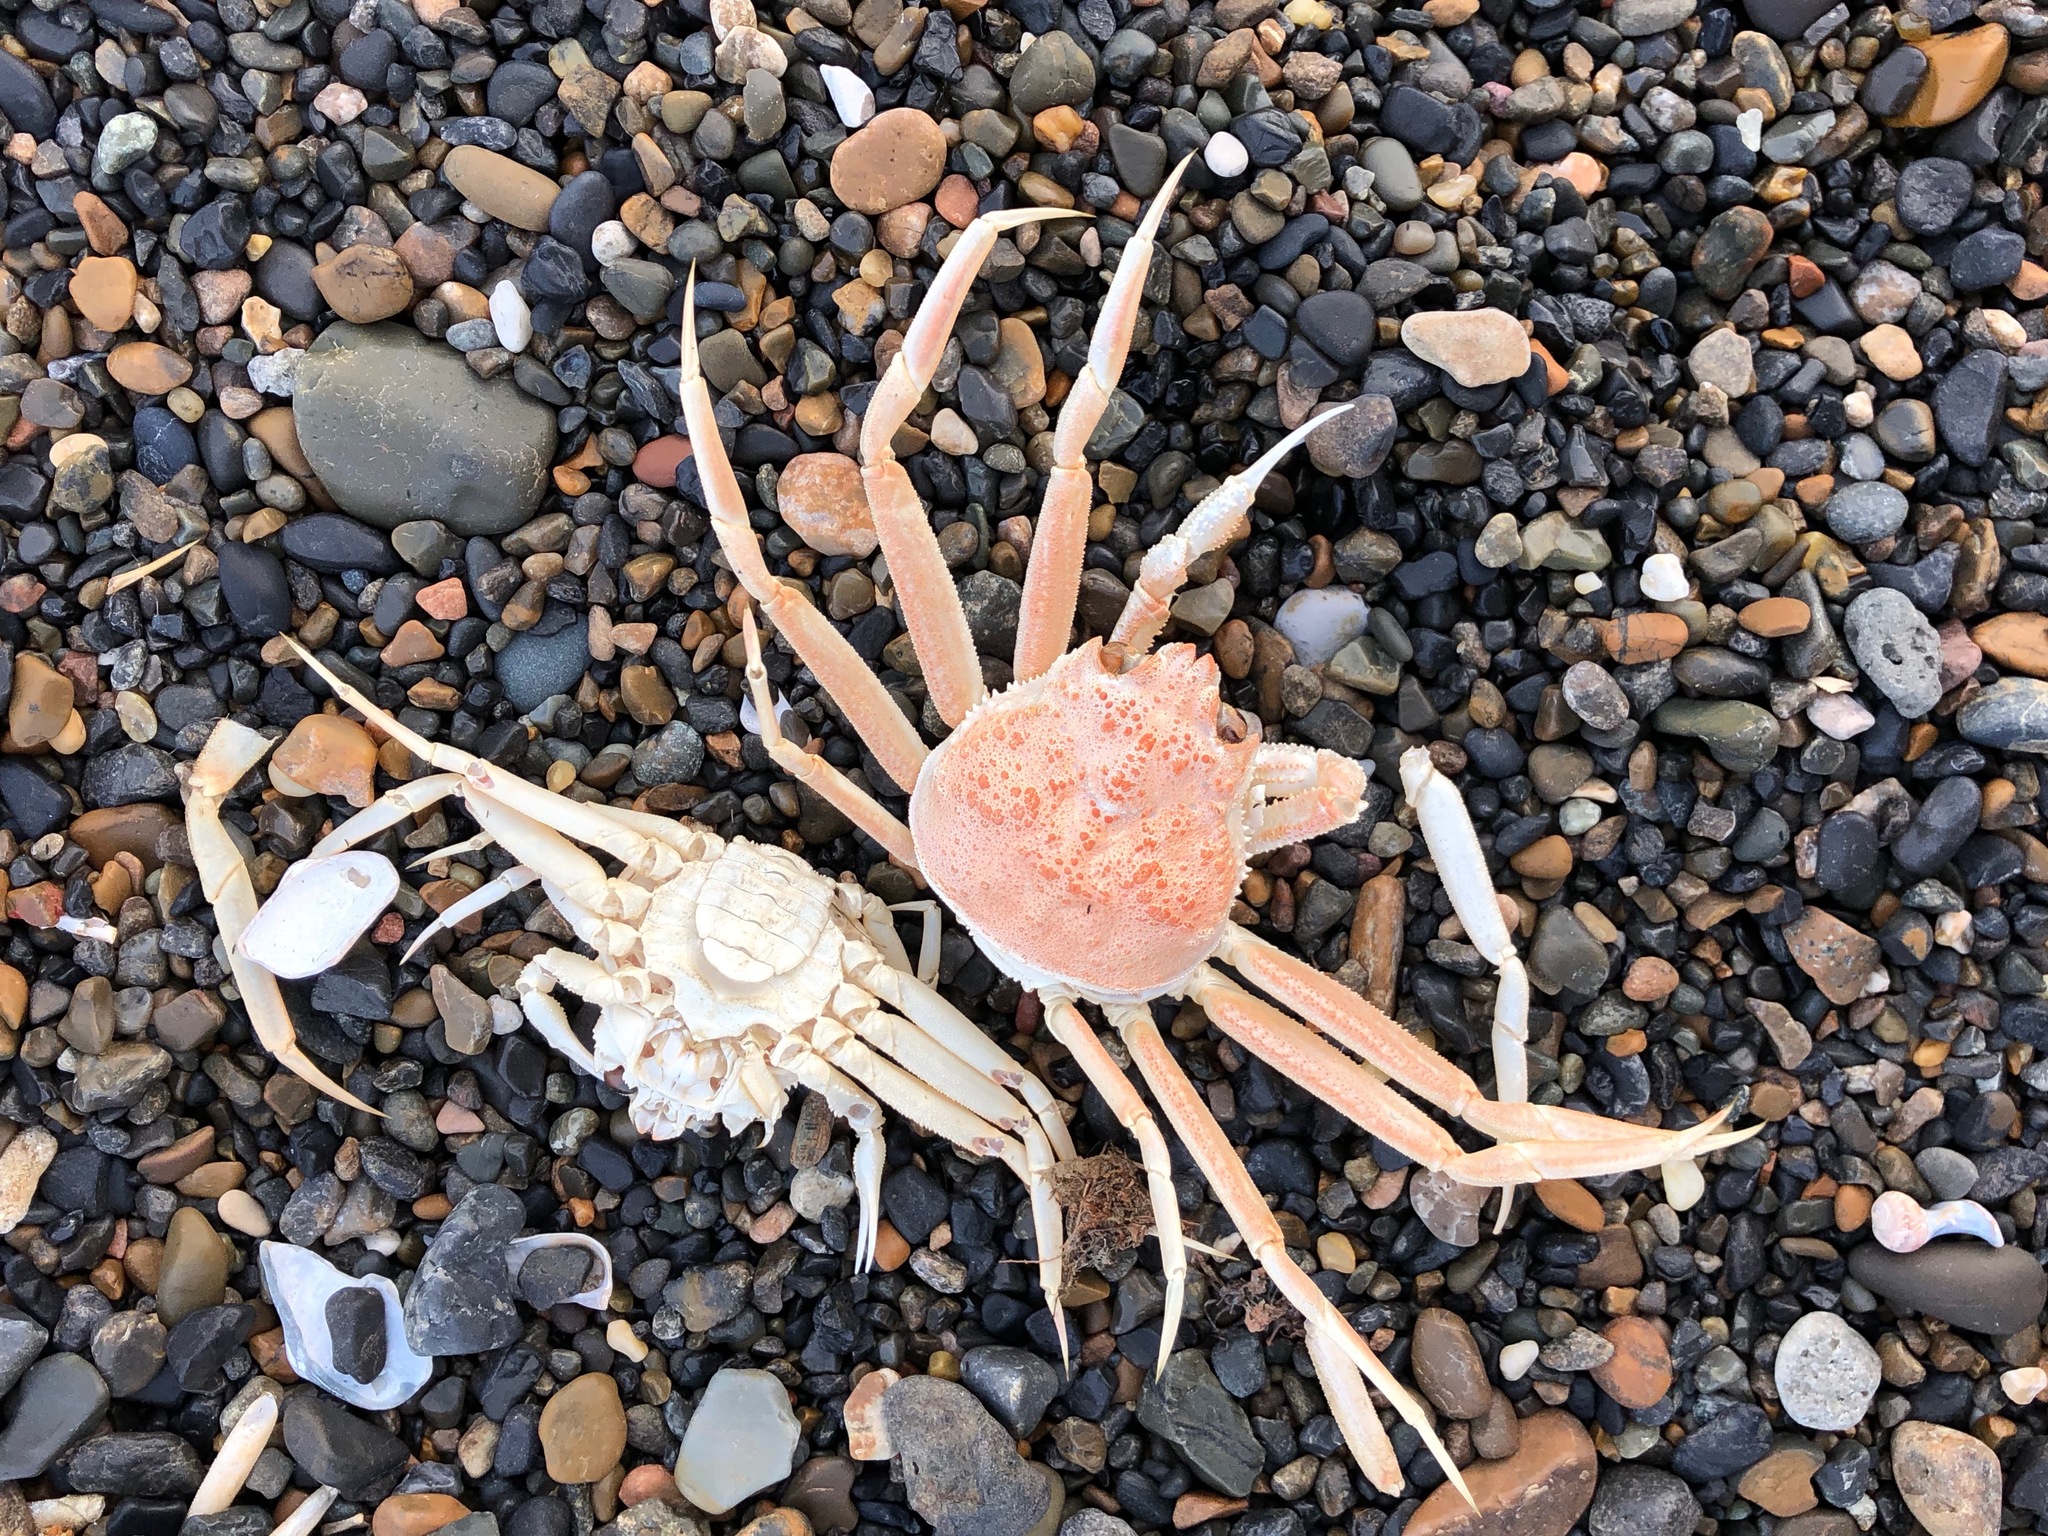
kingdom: Animalia
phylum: Arthropoda
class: Malacostraca
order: Decapoda
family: Oregoniidae
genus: Chionoecetes
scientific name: Chionoecetes bairdi
